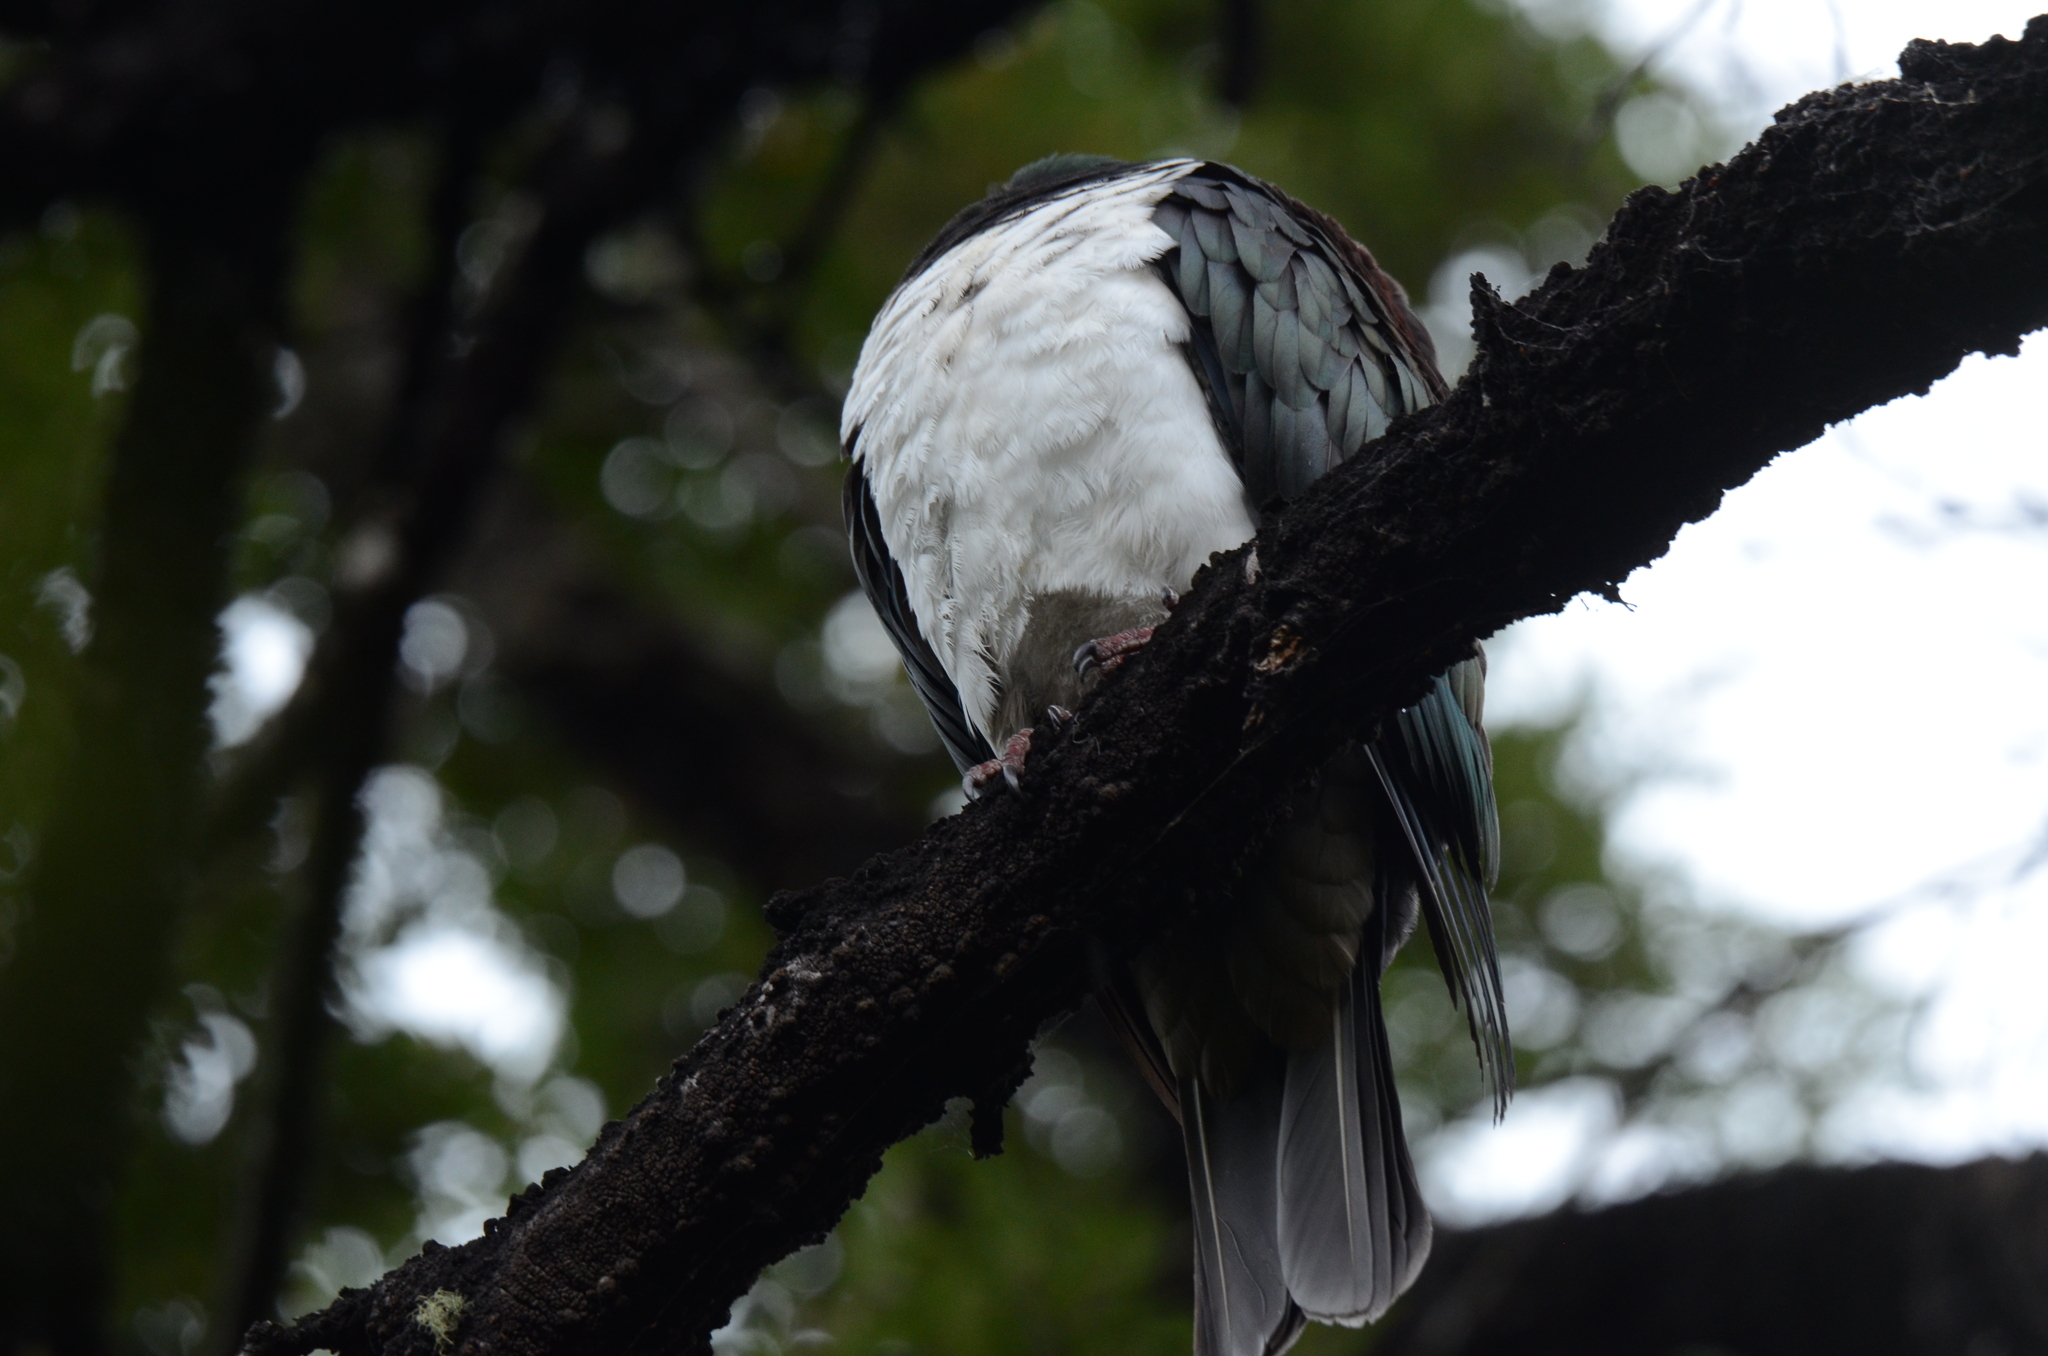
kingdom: Animalia
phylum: Chordata
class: Aves
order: Columbiformes
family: Columbidae
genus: Hemiphaga
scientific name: Hemiphaga novaeseelandiae
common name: New zealand pigeon
